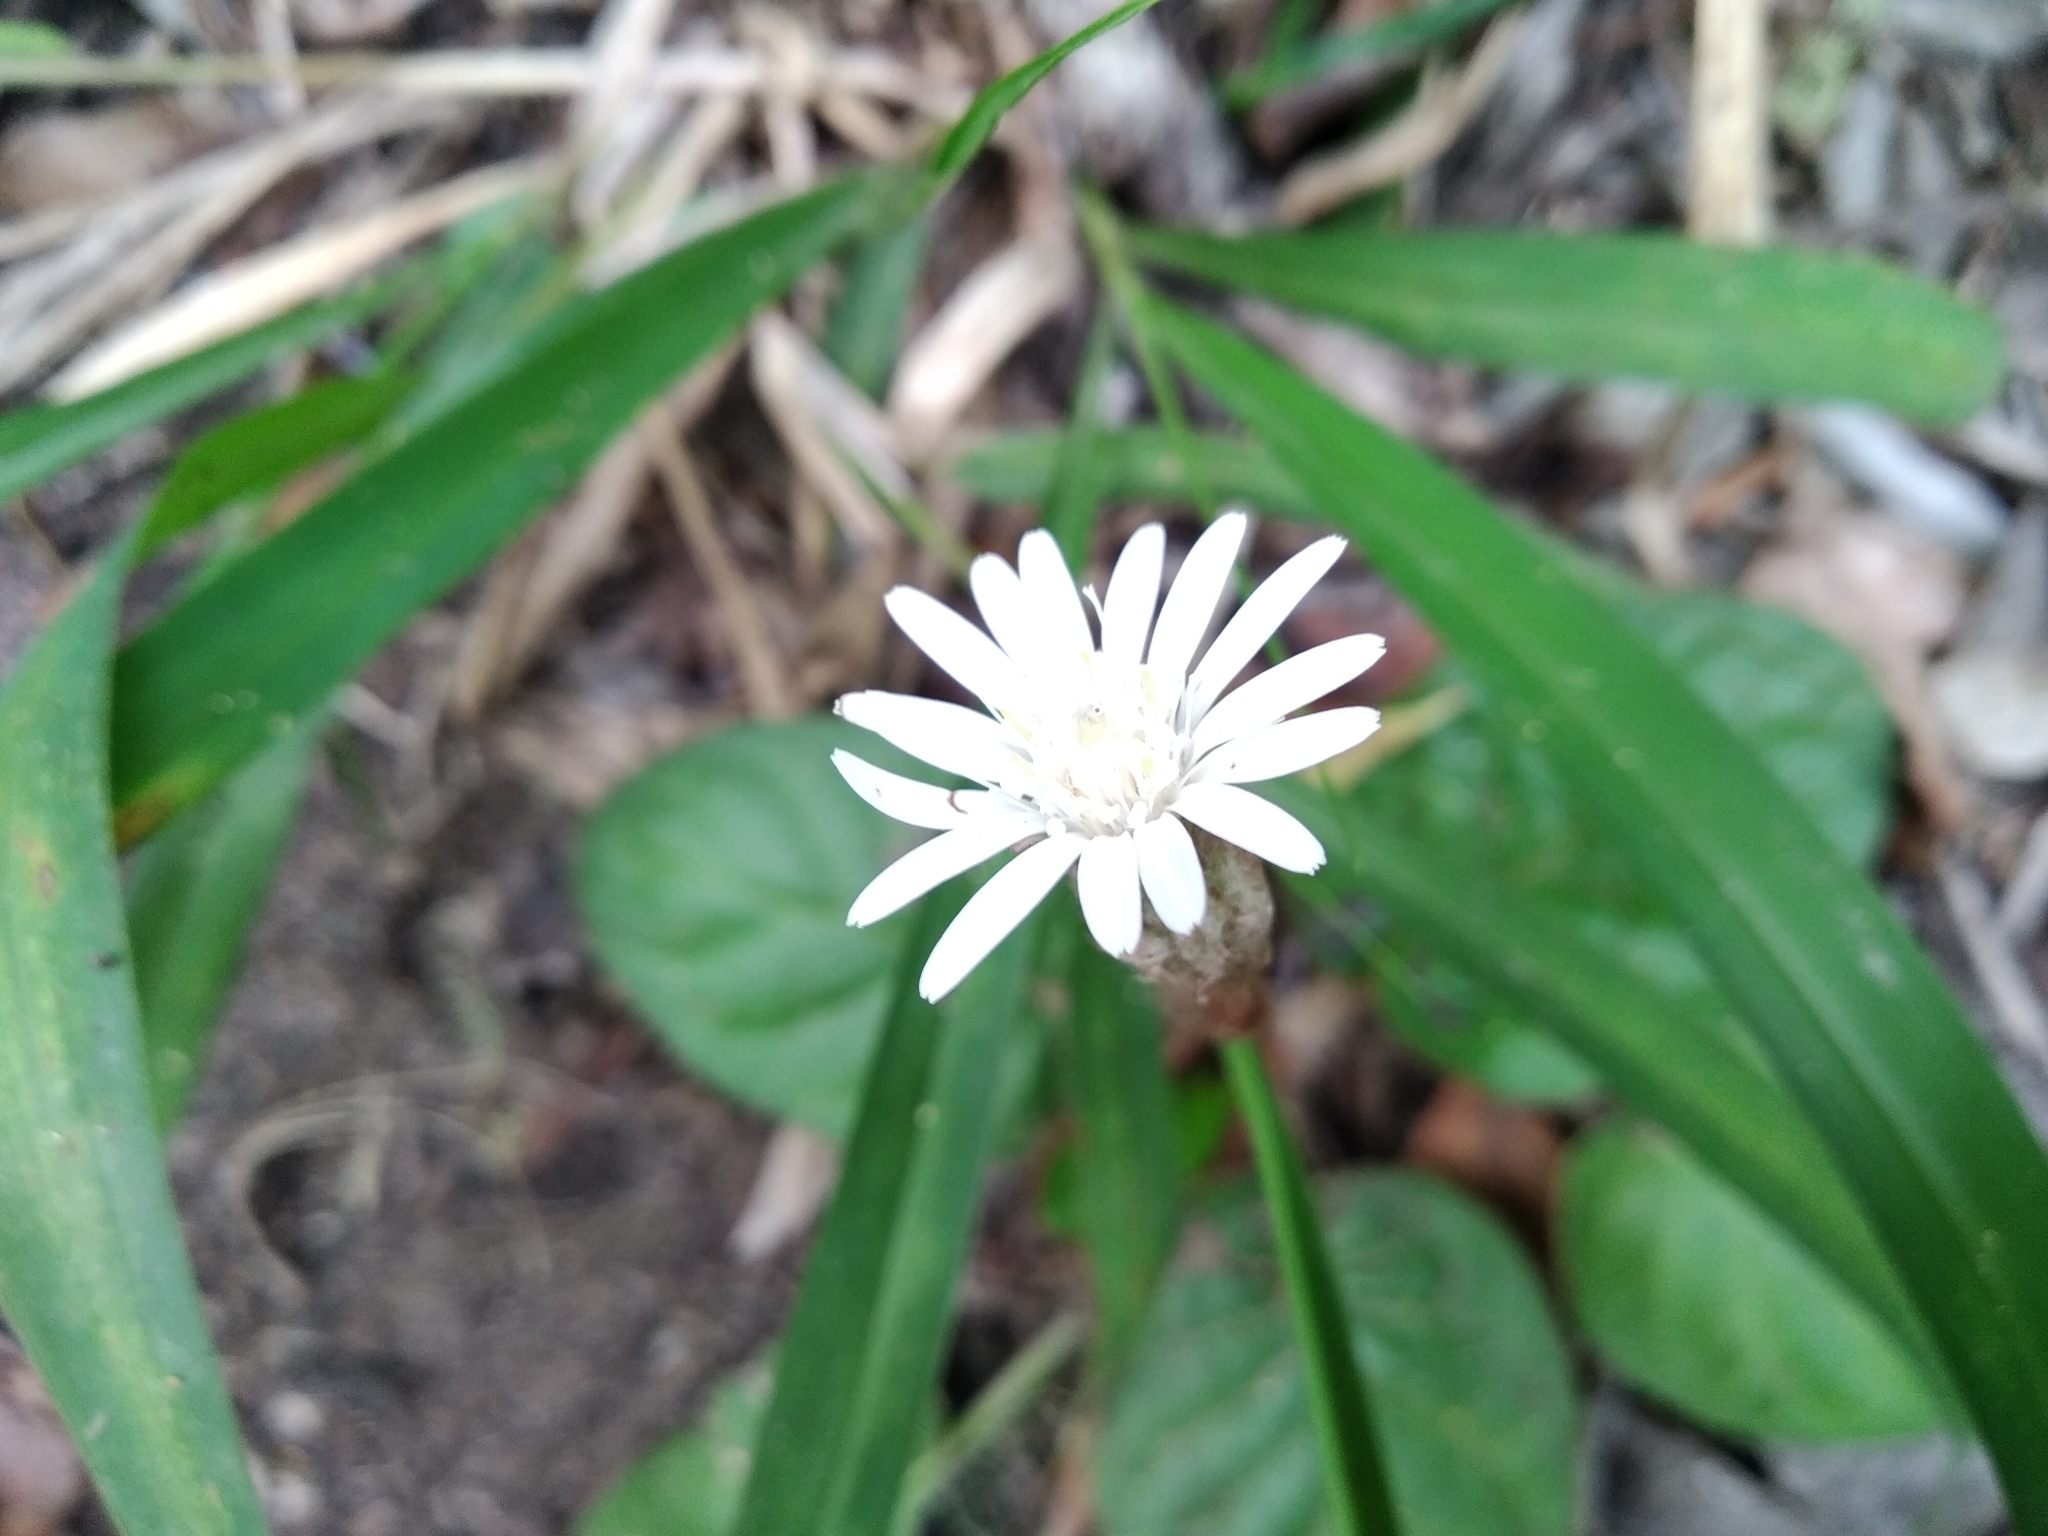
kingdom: Plantae
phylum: Tracheophyta
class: Magnoliopsida
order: Asterales
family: Asteraceae
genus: Piloselloides
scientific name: Piloselloides cordata
